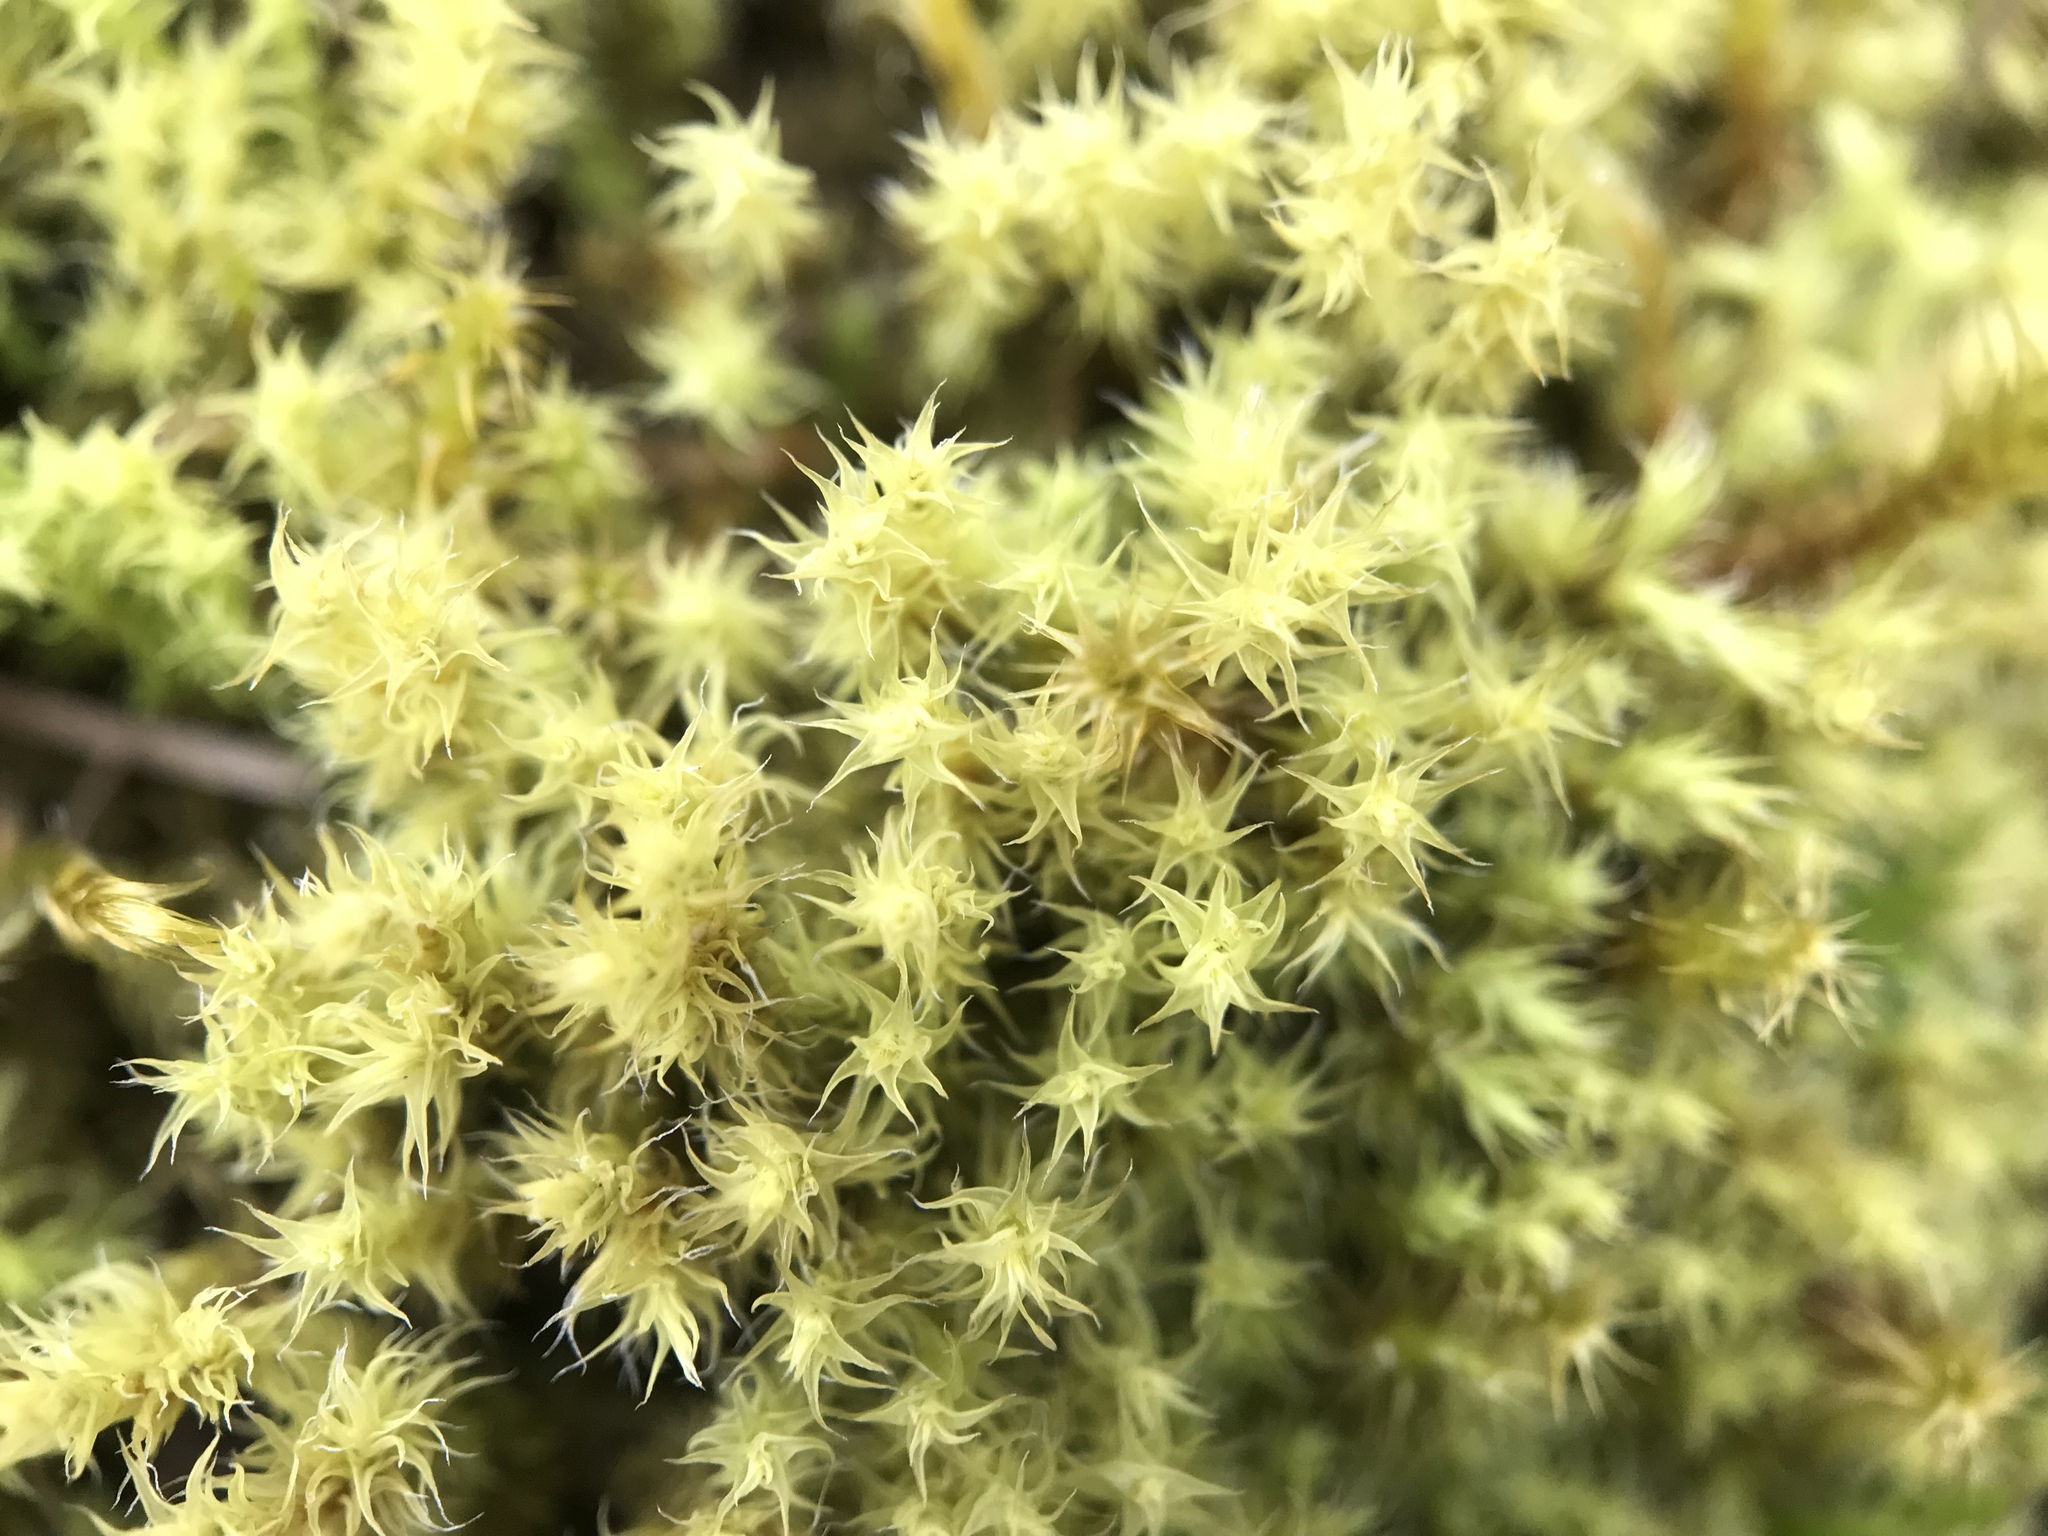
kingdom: Plantae
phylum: Bryophyta
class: Bryopsida
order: Grimmiales
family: Grimmiaceae
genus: Niphotrichum
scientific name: Niphotrichum ericoides
